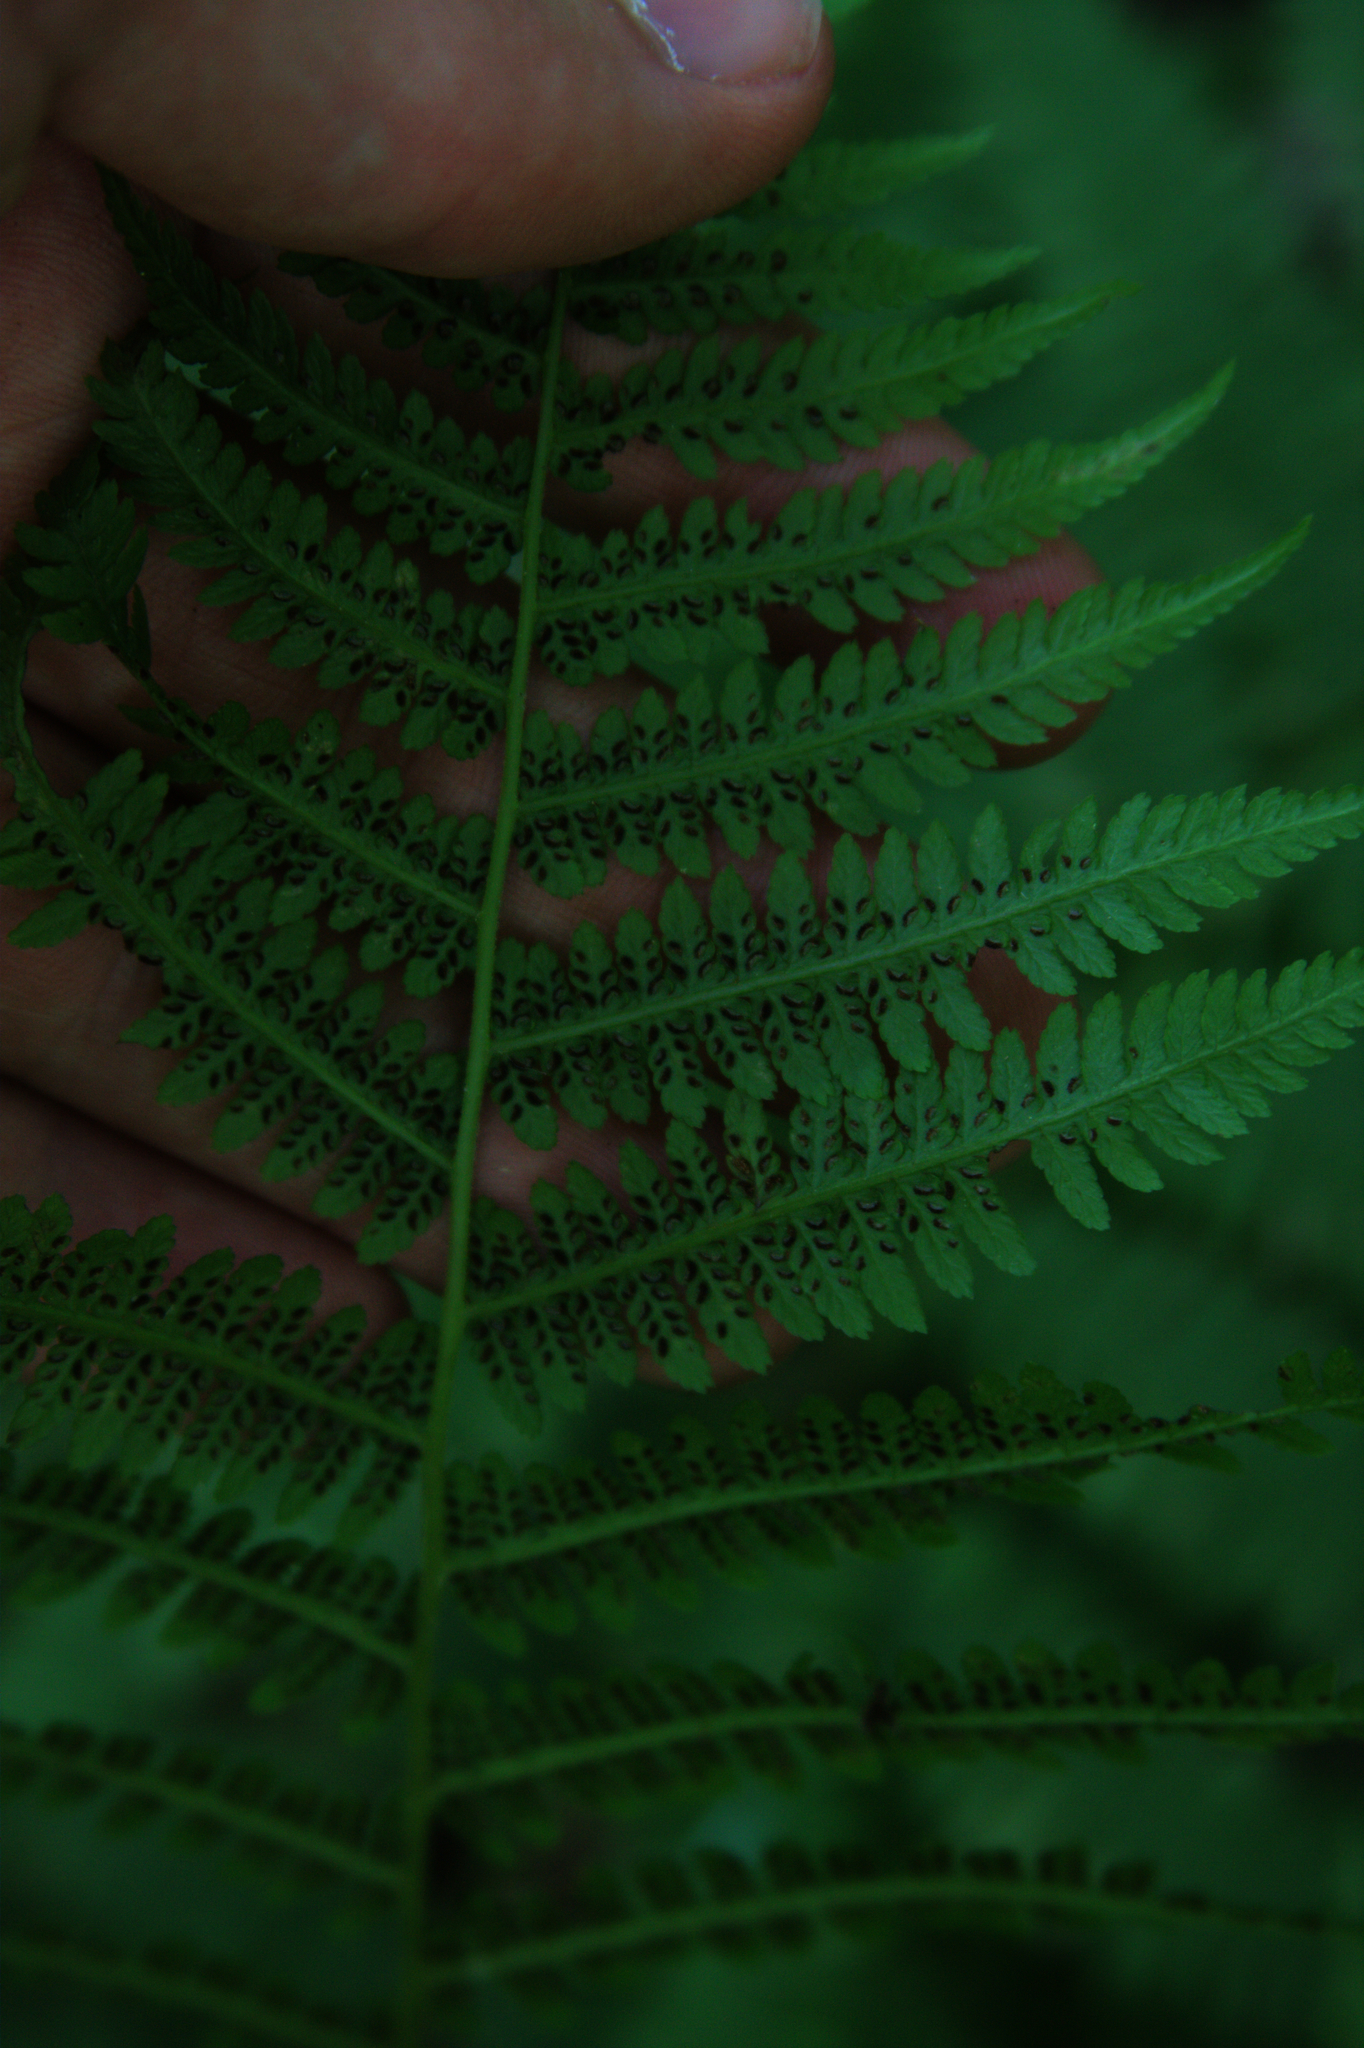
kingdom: Plantae
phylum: Tracheophyta
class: Polypodiopsida
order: Polypodiales
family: Athyriaceae
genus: Athyrium
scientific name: Athyrium angustum
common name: Northern lady fern
